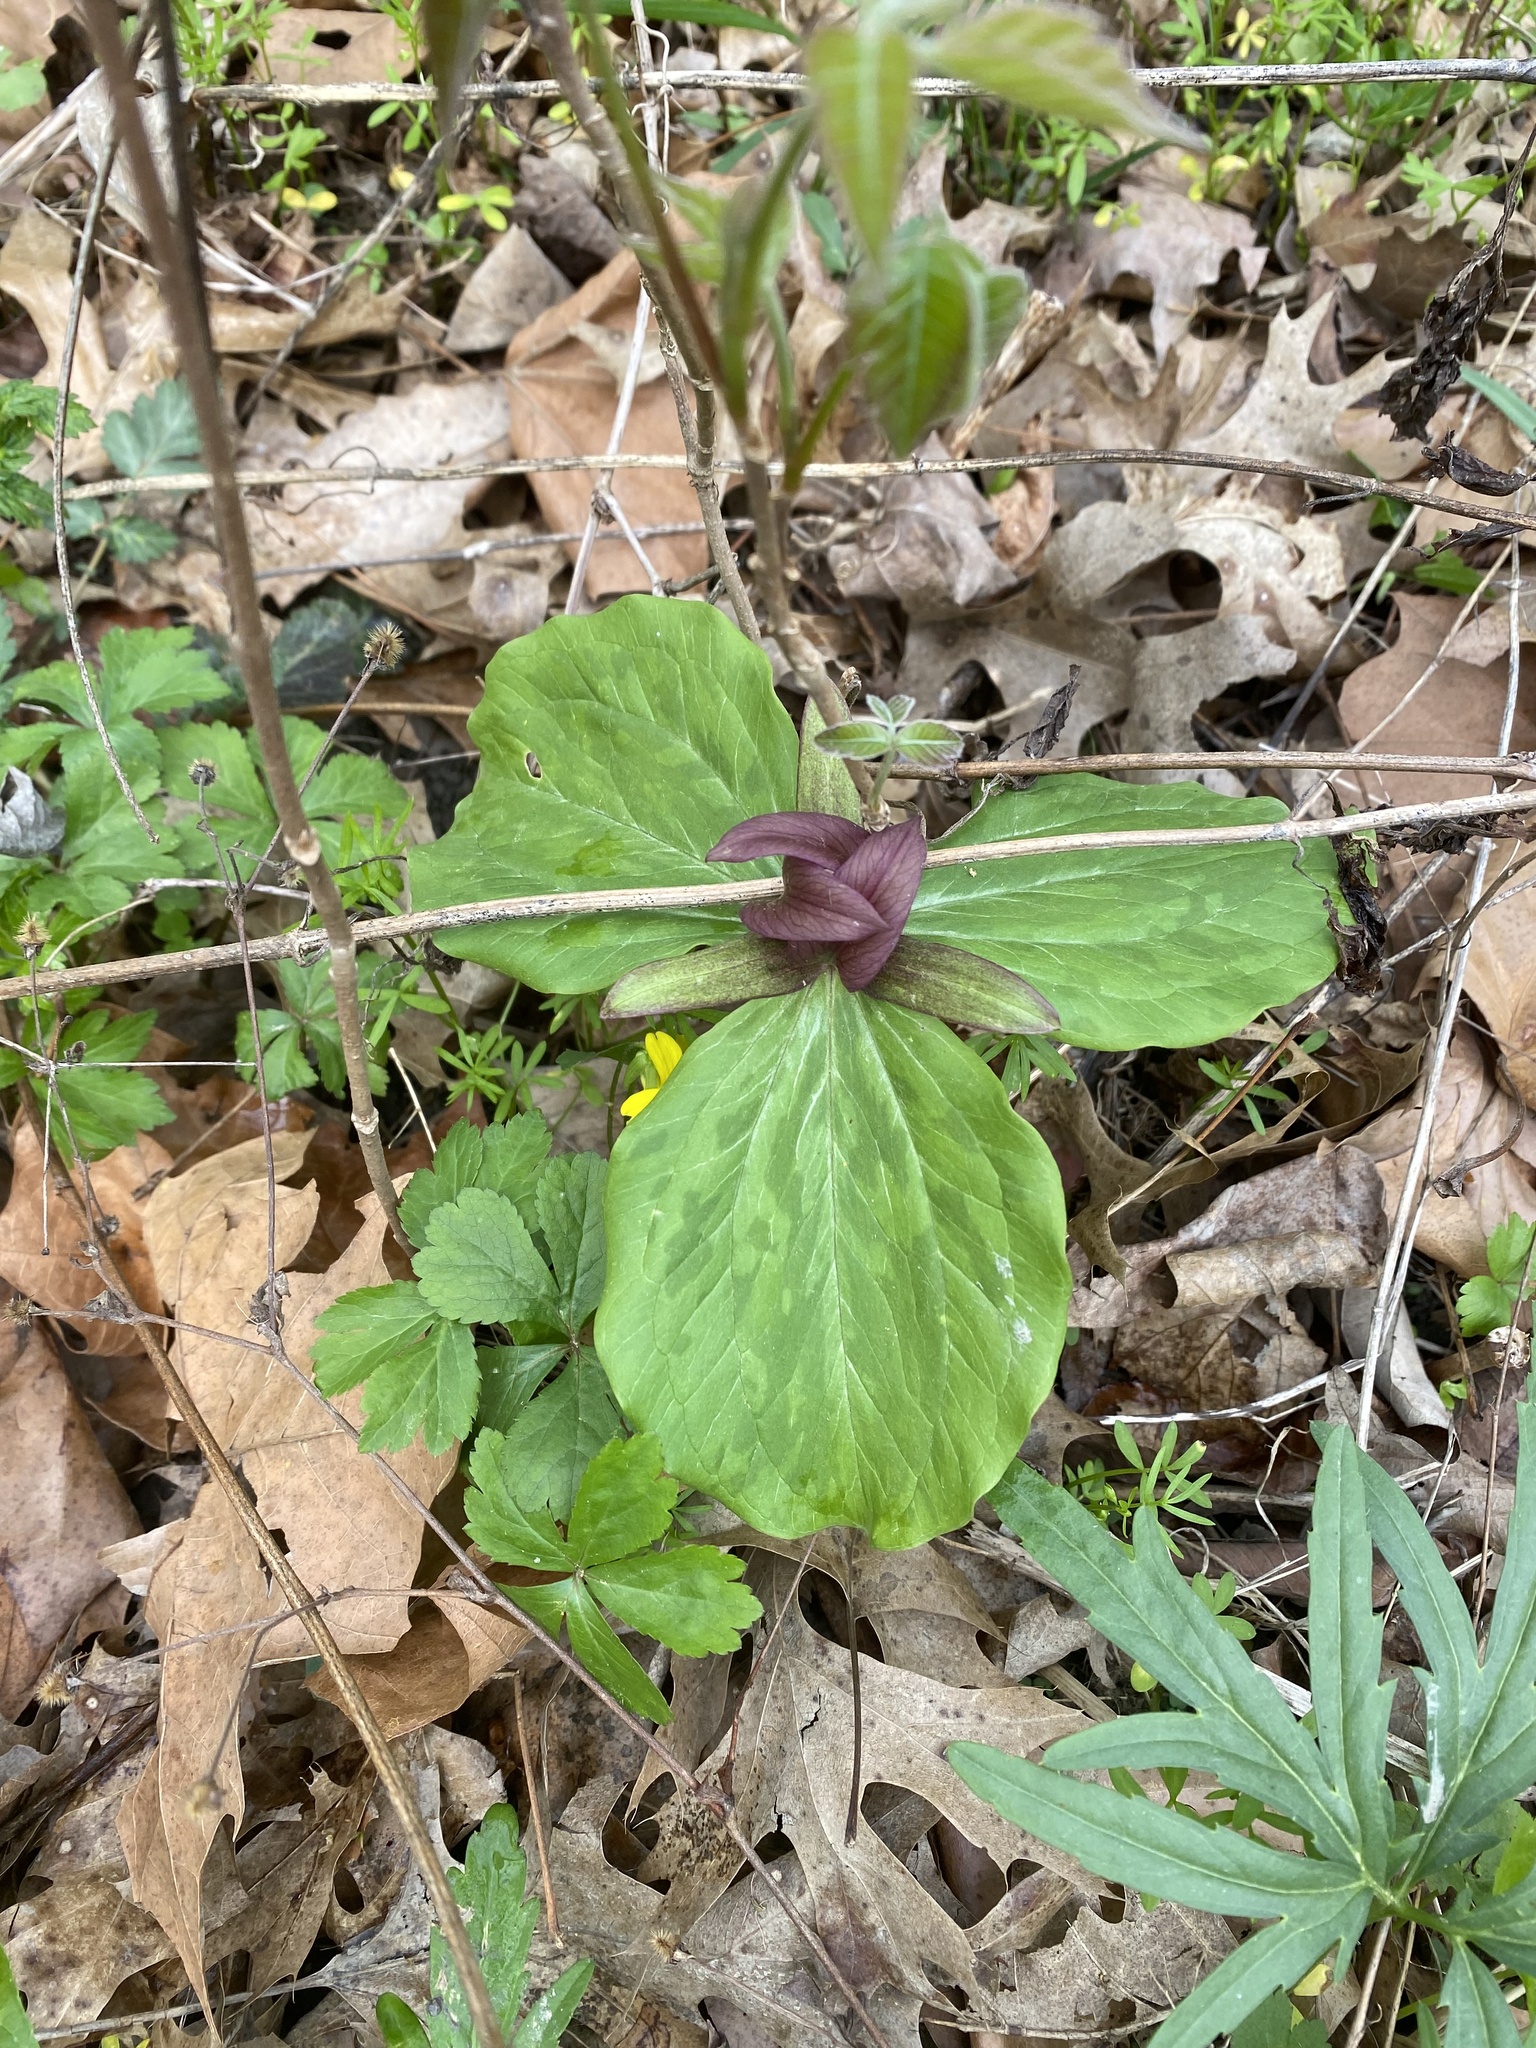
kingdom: Plantae
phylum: Tracheophyta
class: Liliopsida
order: Liliales
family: Melanthiaceae
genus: Trillium
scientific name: Trillium sessile
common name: Sessile trillium
